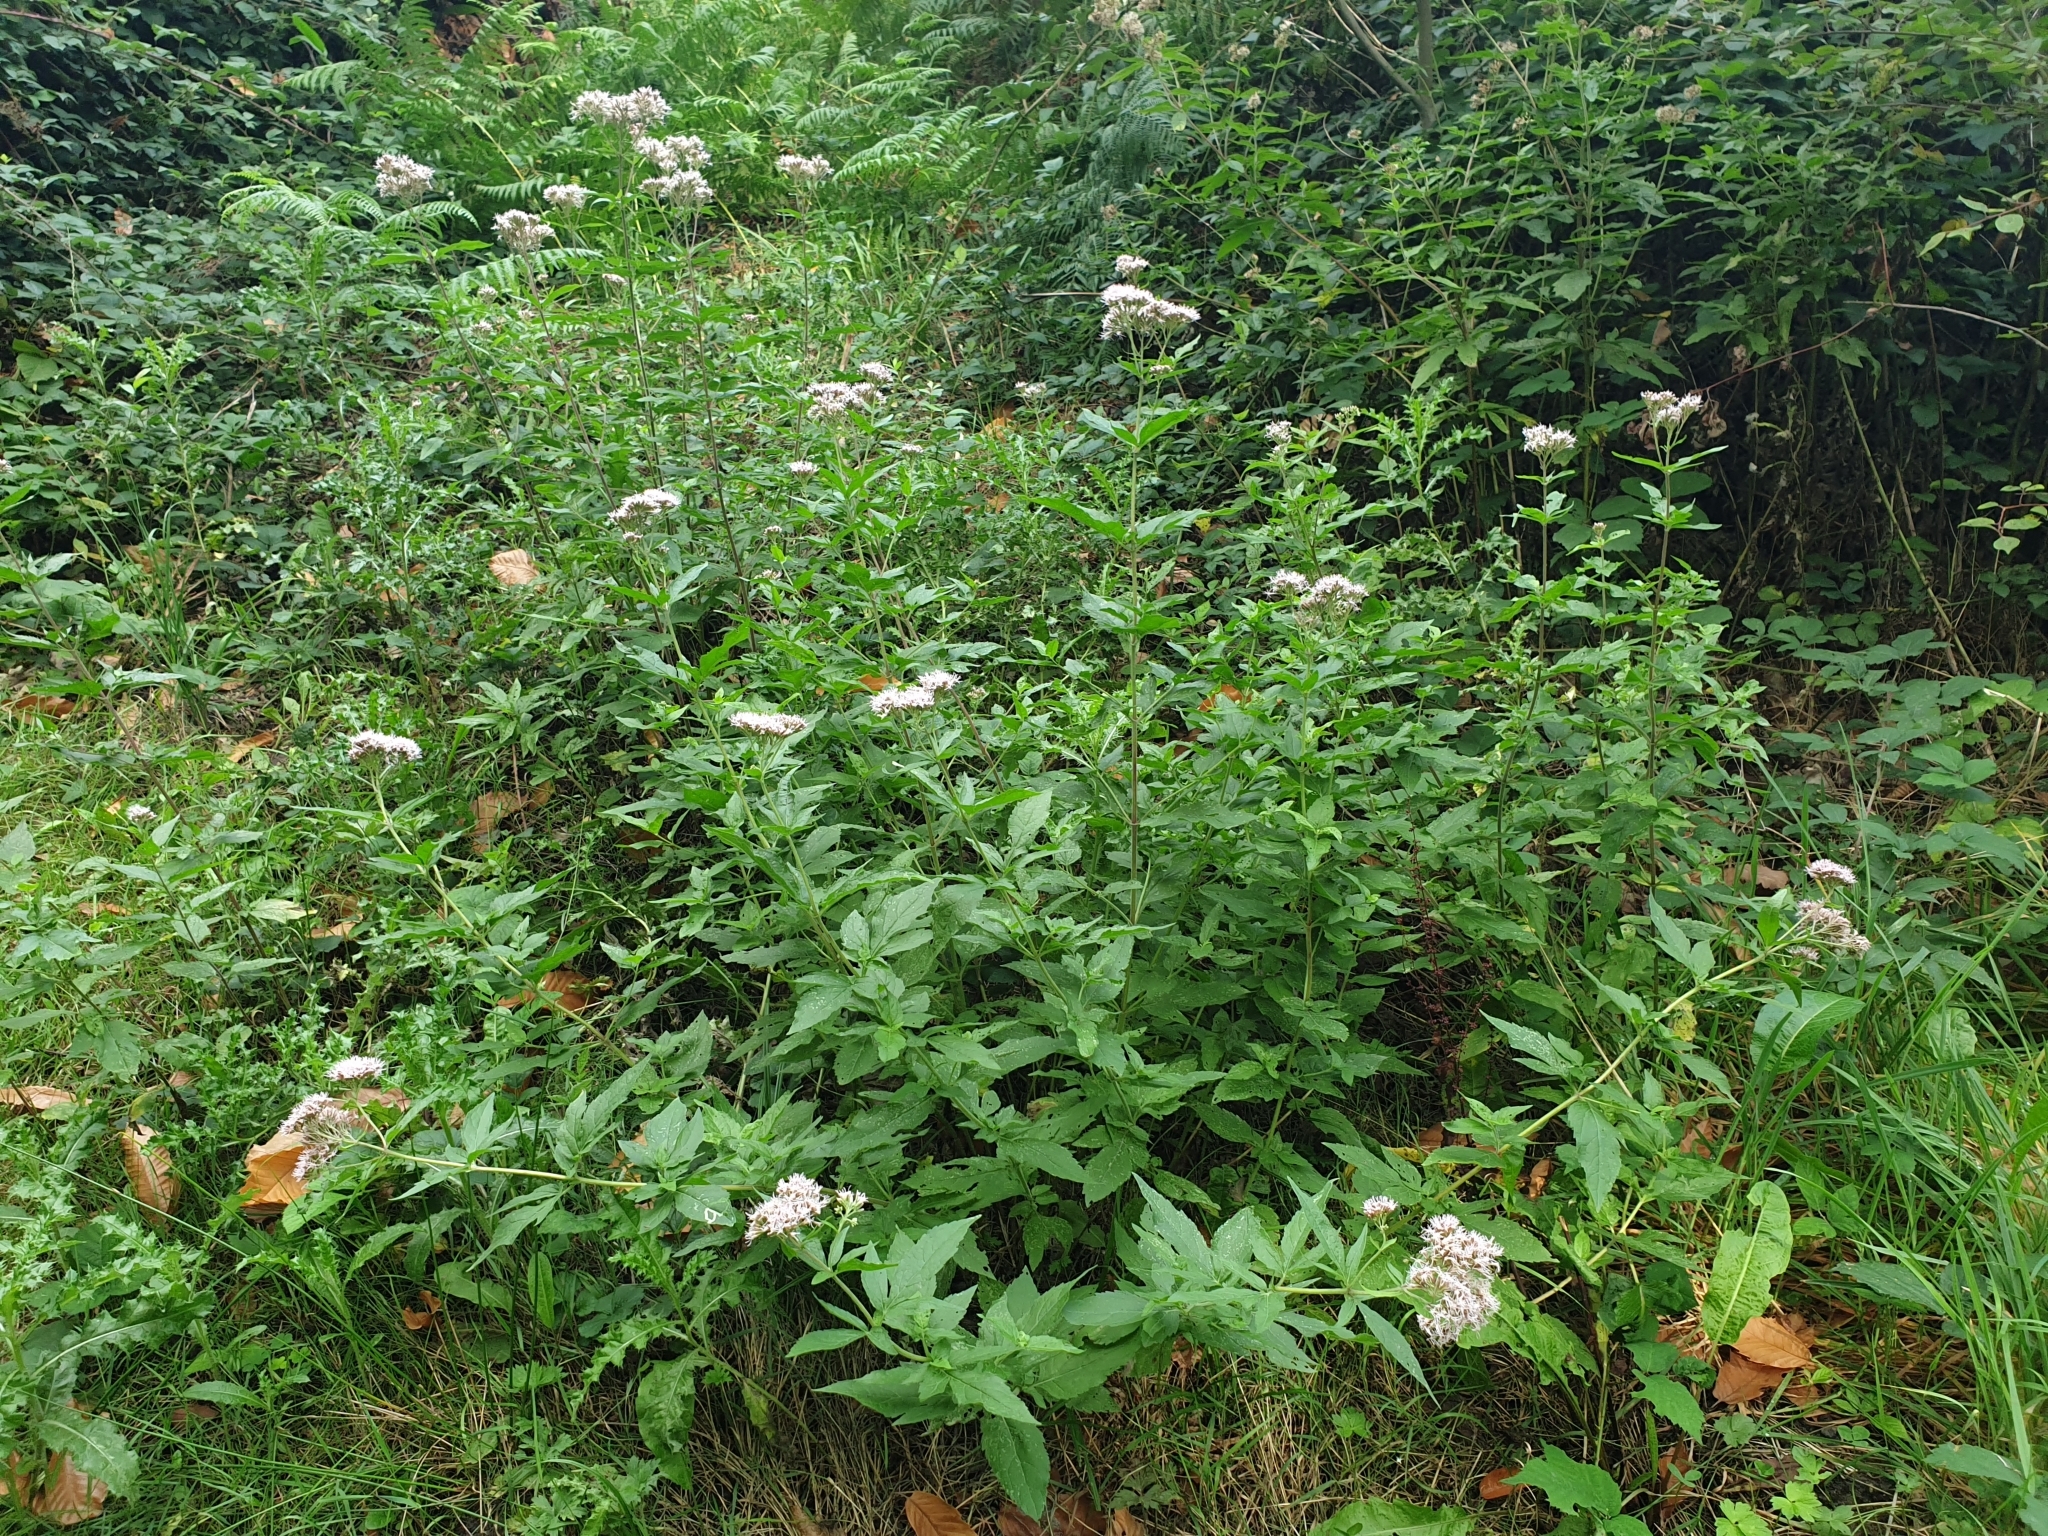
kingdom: Plantae
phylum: Tracheophyta
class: Magnoliopsida
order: Asterales
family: Asteraceae
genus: Eupatorium
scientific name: Eupatorium cannabinum
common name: Hemp-agrimony
